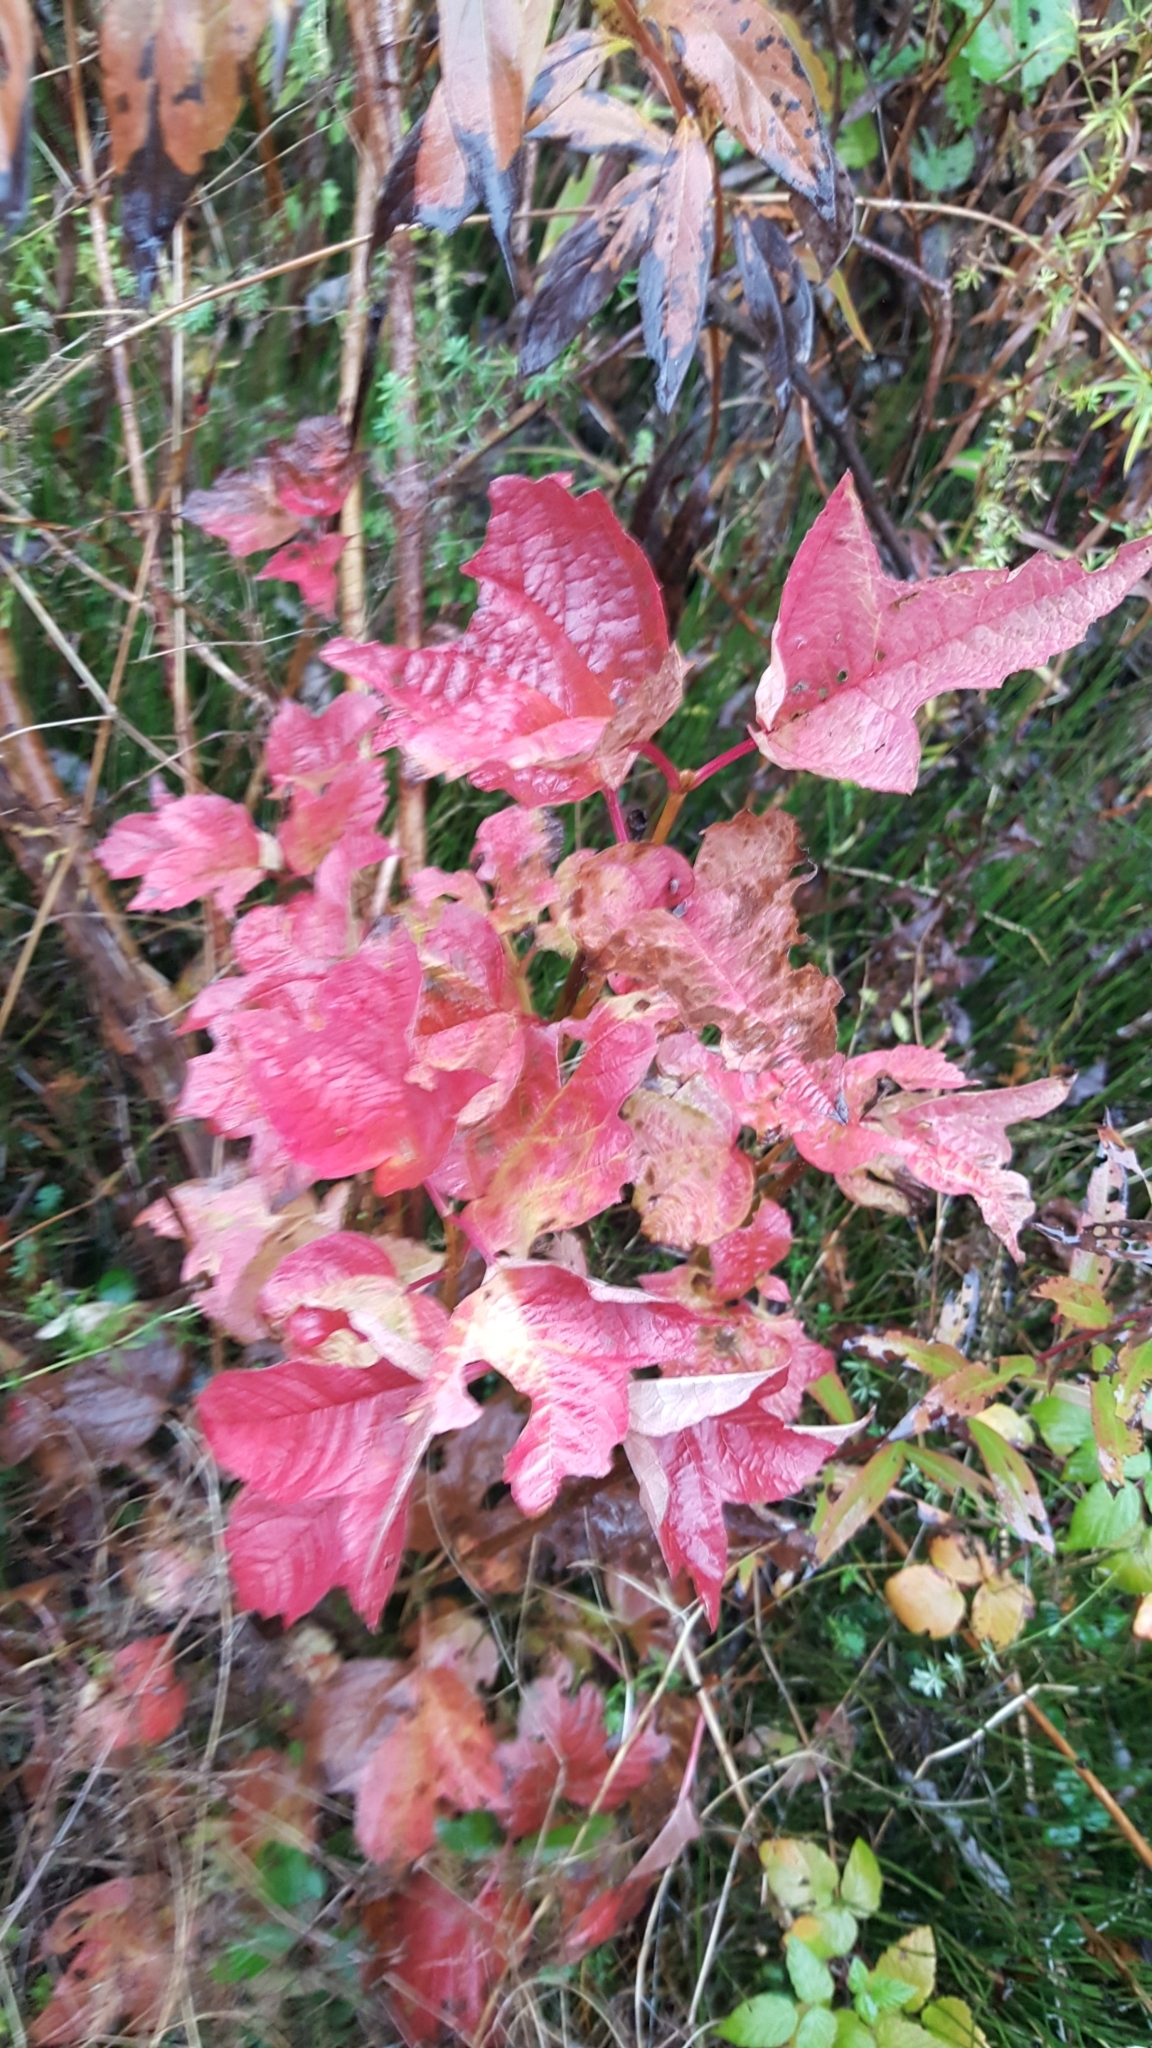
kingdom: Plantae
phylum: Tracheophyta
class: Magnoliopsida
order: Dipsacales
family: Viburnaceae
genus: Viburnum
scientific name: Viburnum opulus
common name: Guelder-rose
